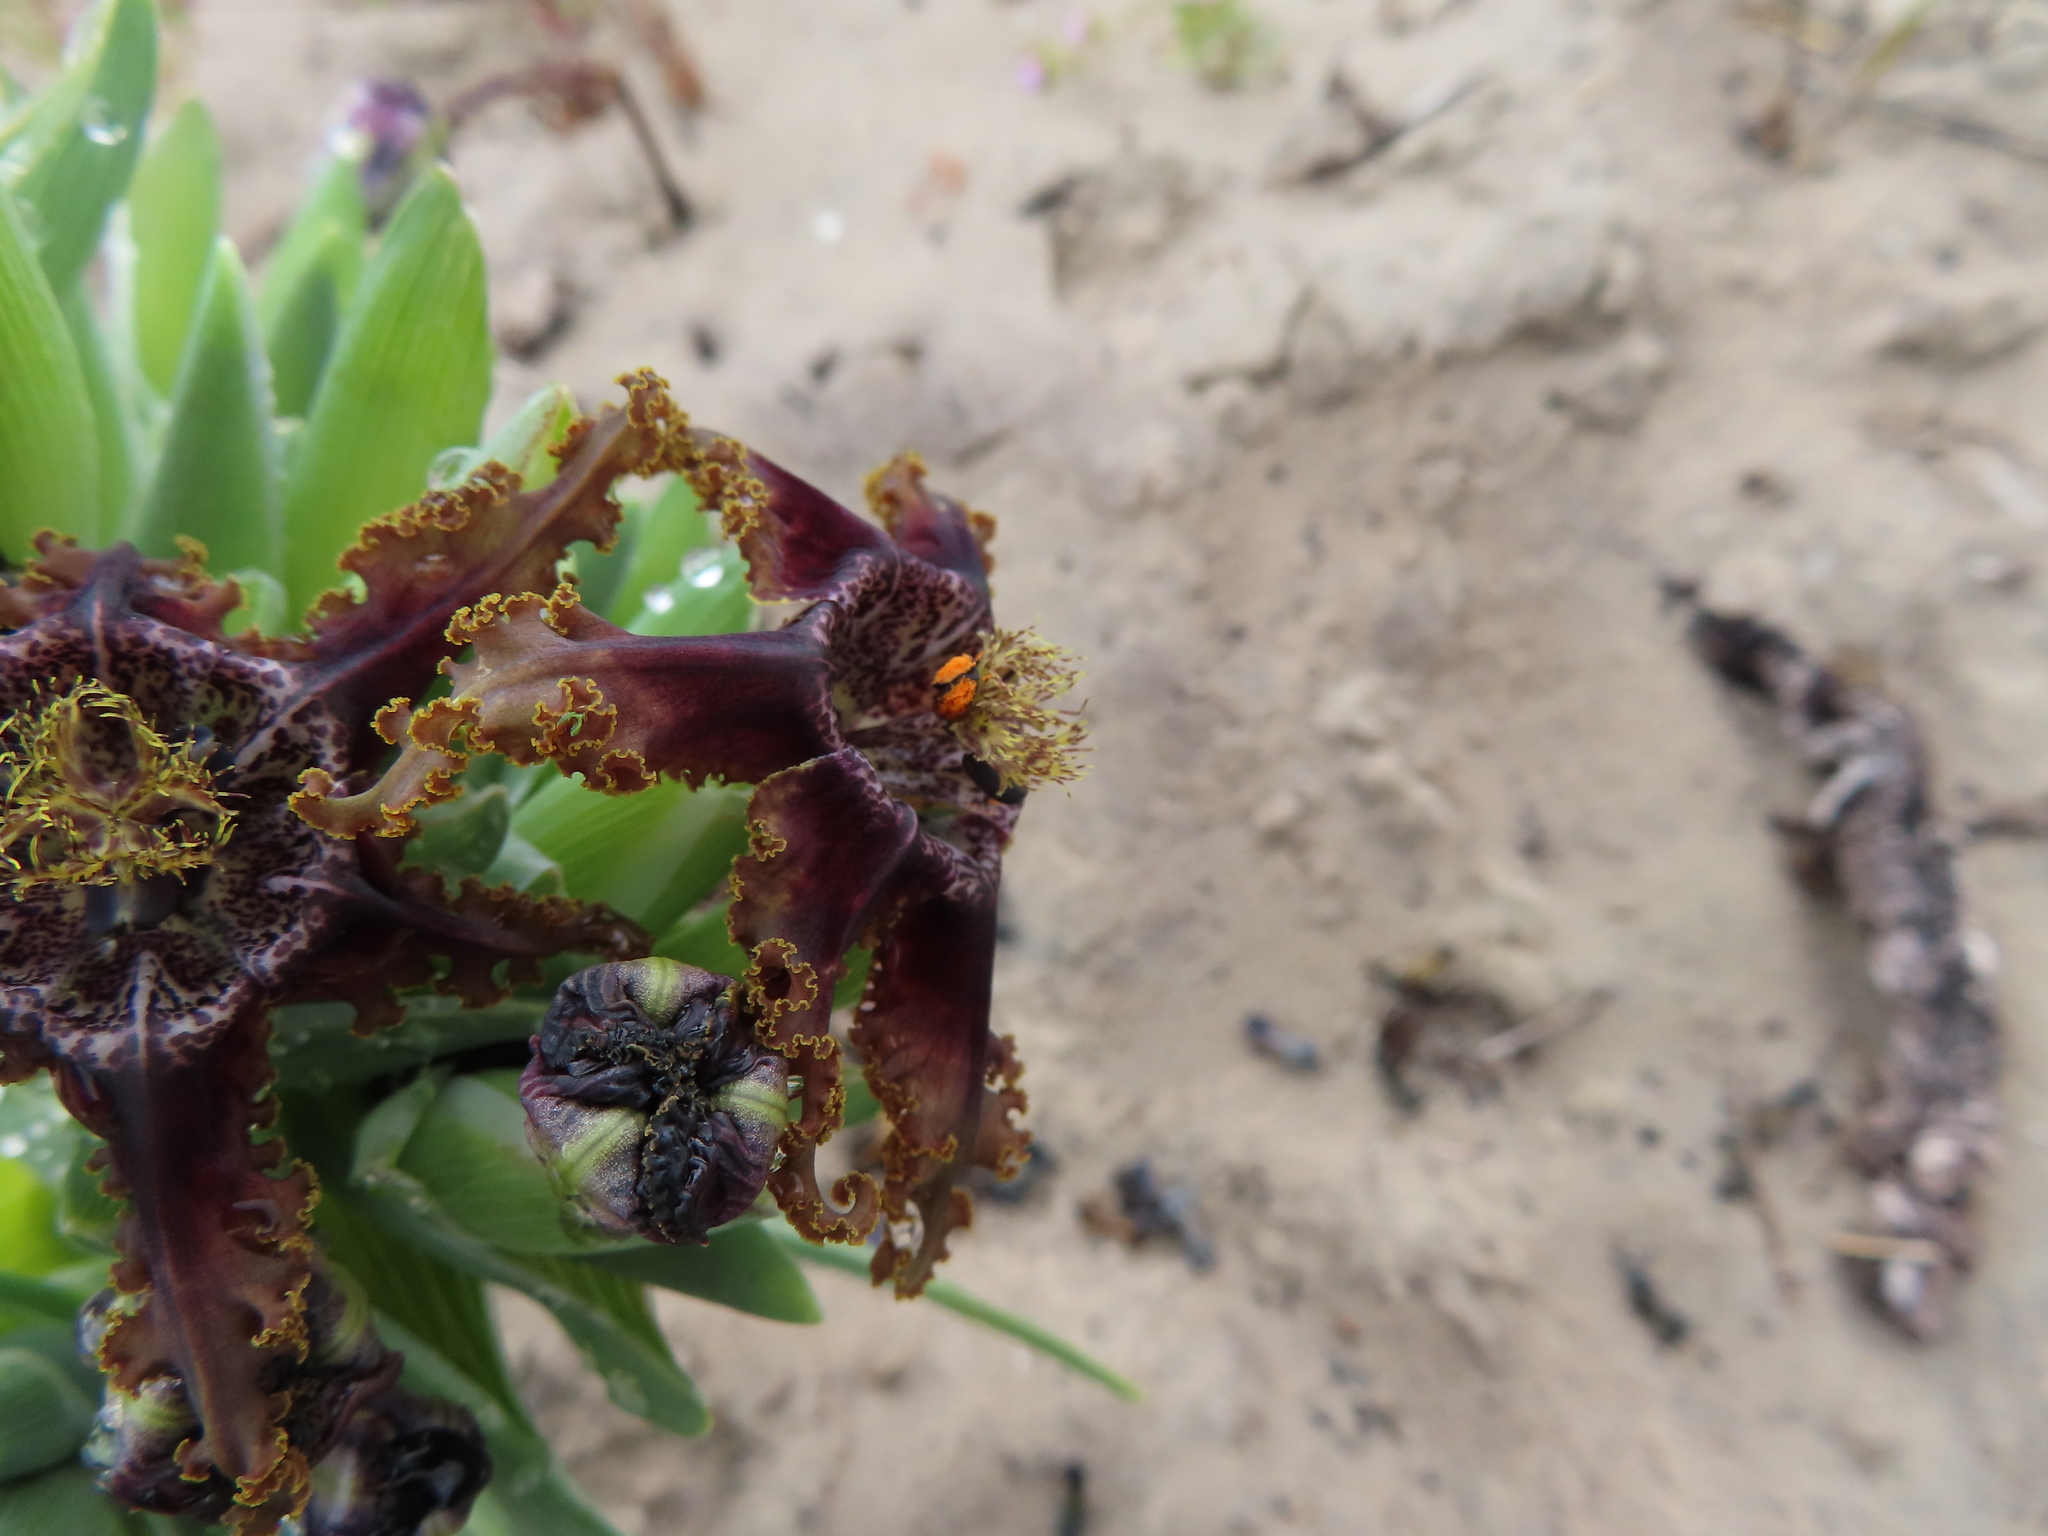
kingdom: Plantae
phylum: Tracheophyta
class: Liliopsida
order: Asparagales
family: Iridaceae
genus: Ferraria
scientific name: Ferraria foliosa
